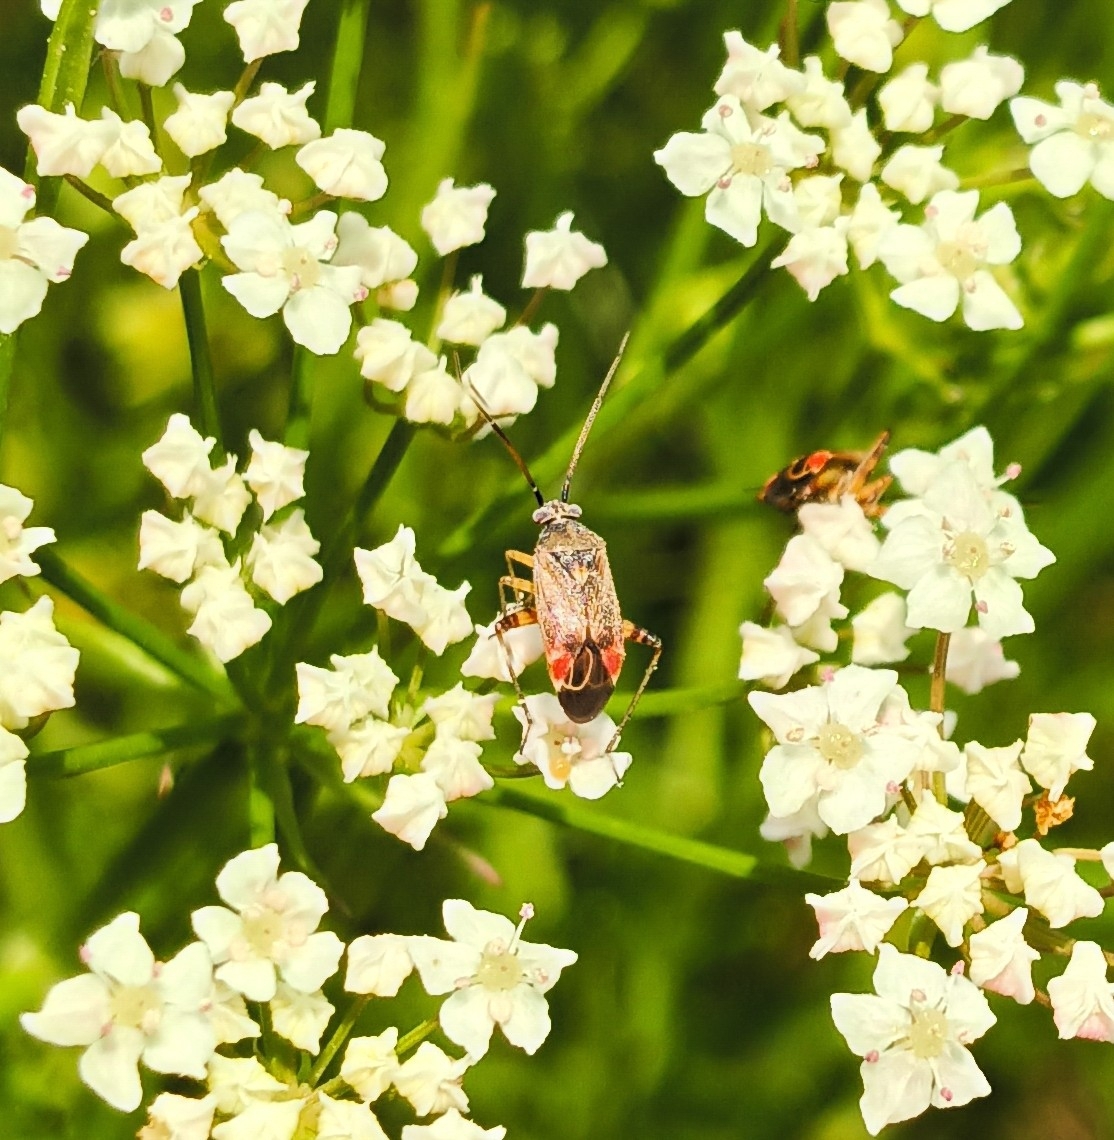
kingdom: Animalia
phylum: Arthropoda
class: Insecta
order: Hemiptera
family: Miridae
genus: Polymerus
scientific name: Polymerus basalis
